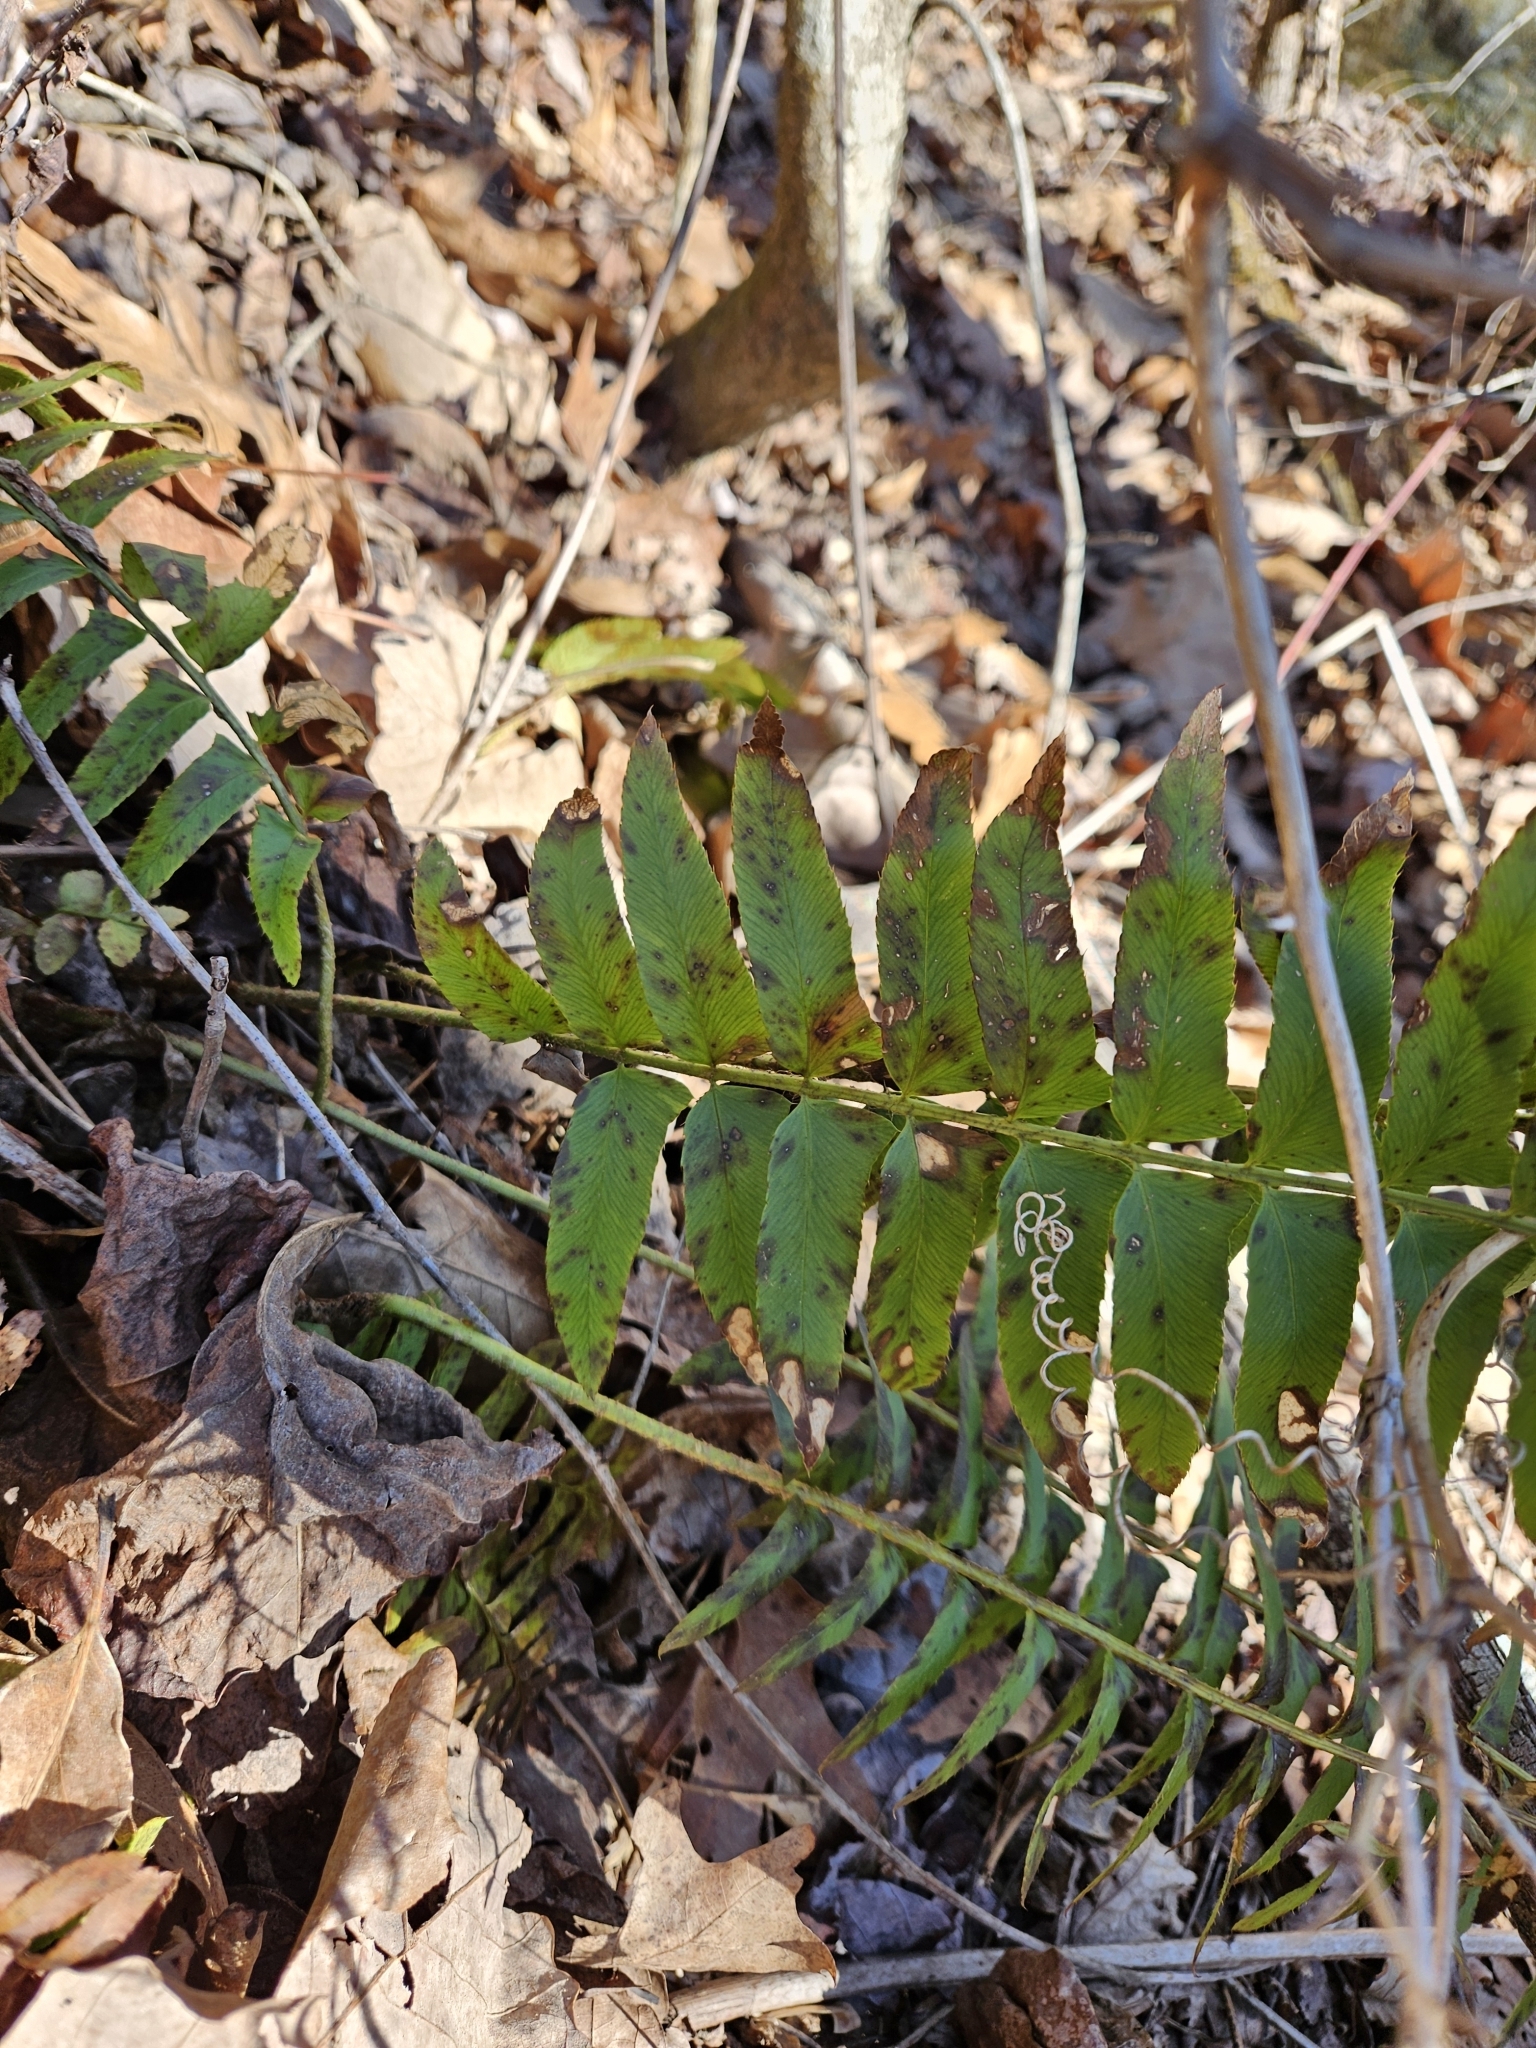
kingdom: Plantae
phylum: Tracheophyta
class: Polypodiopsida
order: Polypodiales
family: Dryopteridaceae
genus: Polystichum
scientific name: Polystichum acrostichoides
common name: Christmas fern
